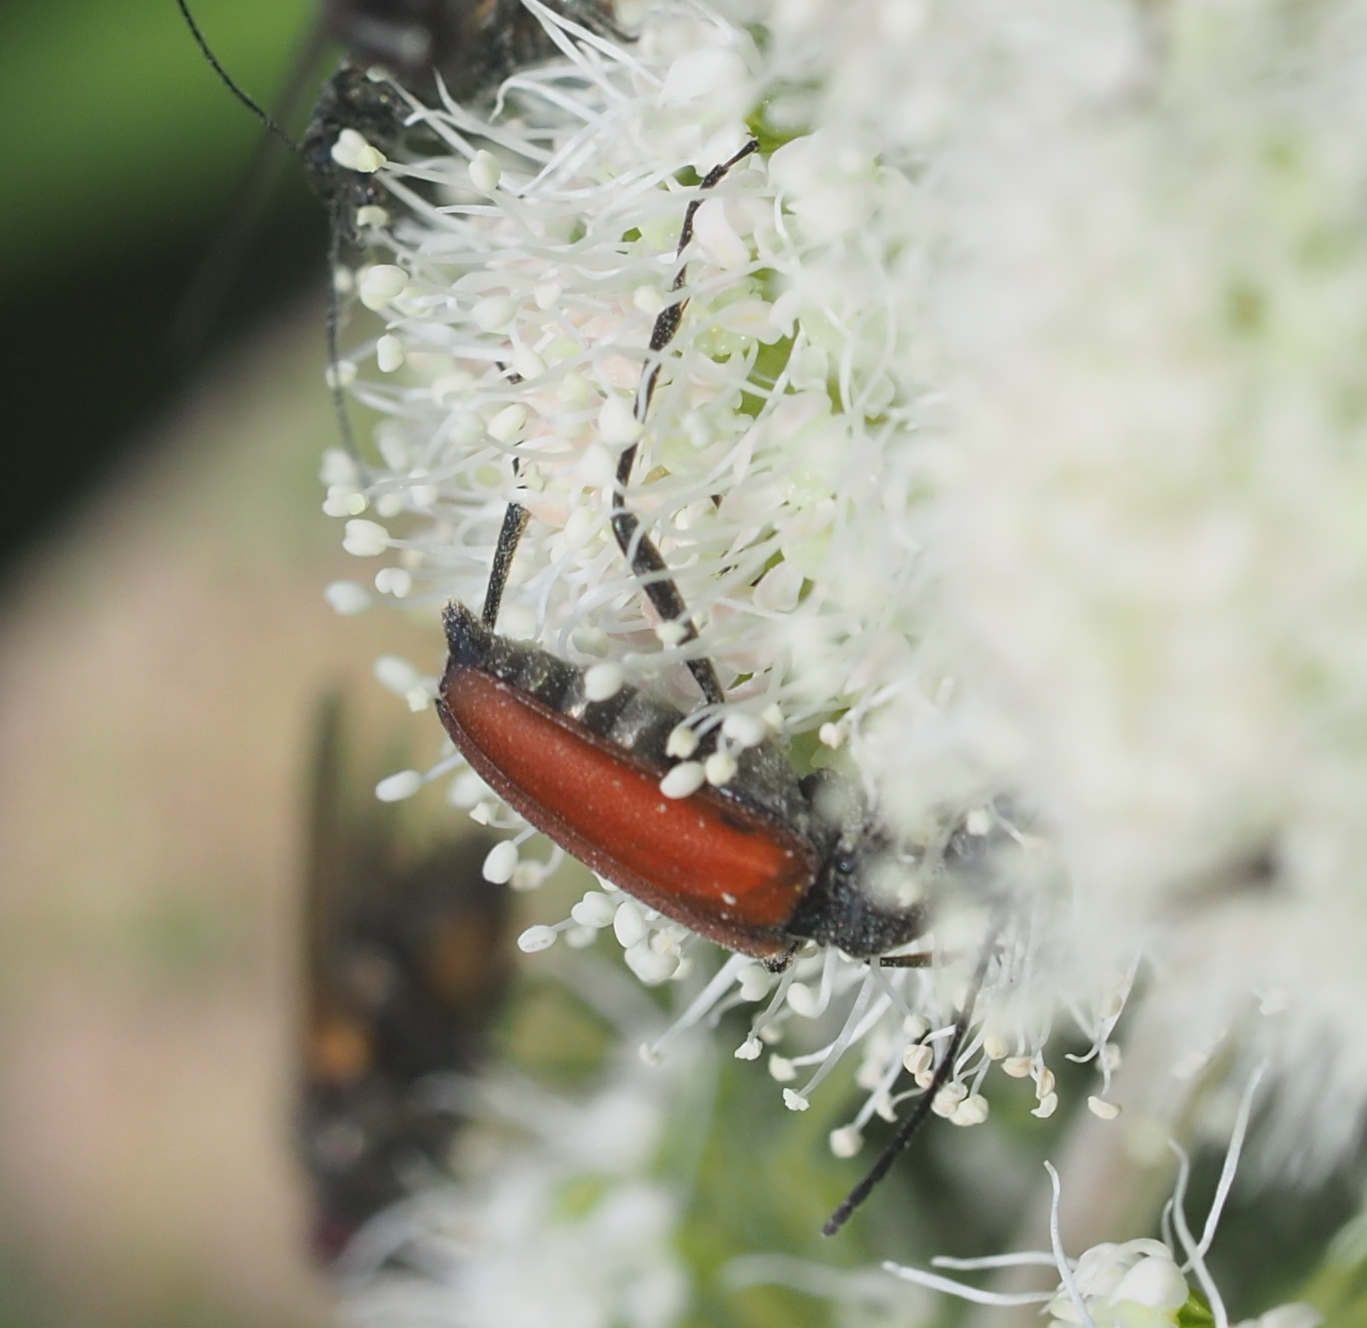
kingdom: Animalia
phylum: Arthropoda
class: Insecta
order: Coleoptera
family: Cerambycidae
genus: Anastrangalia
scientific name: Anastrangalia sanguinolenta
